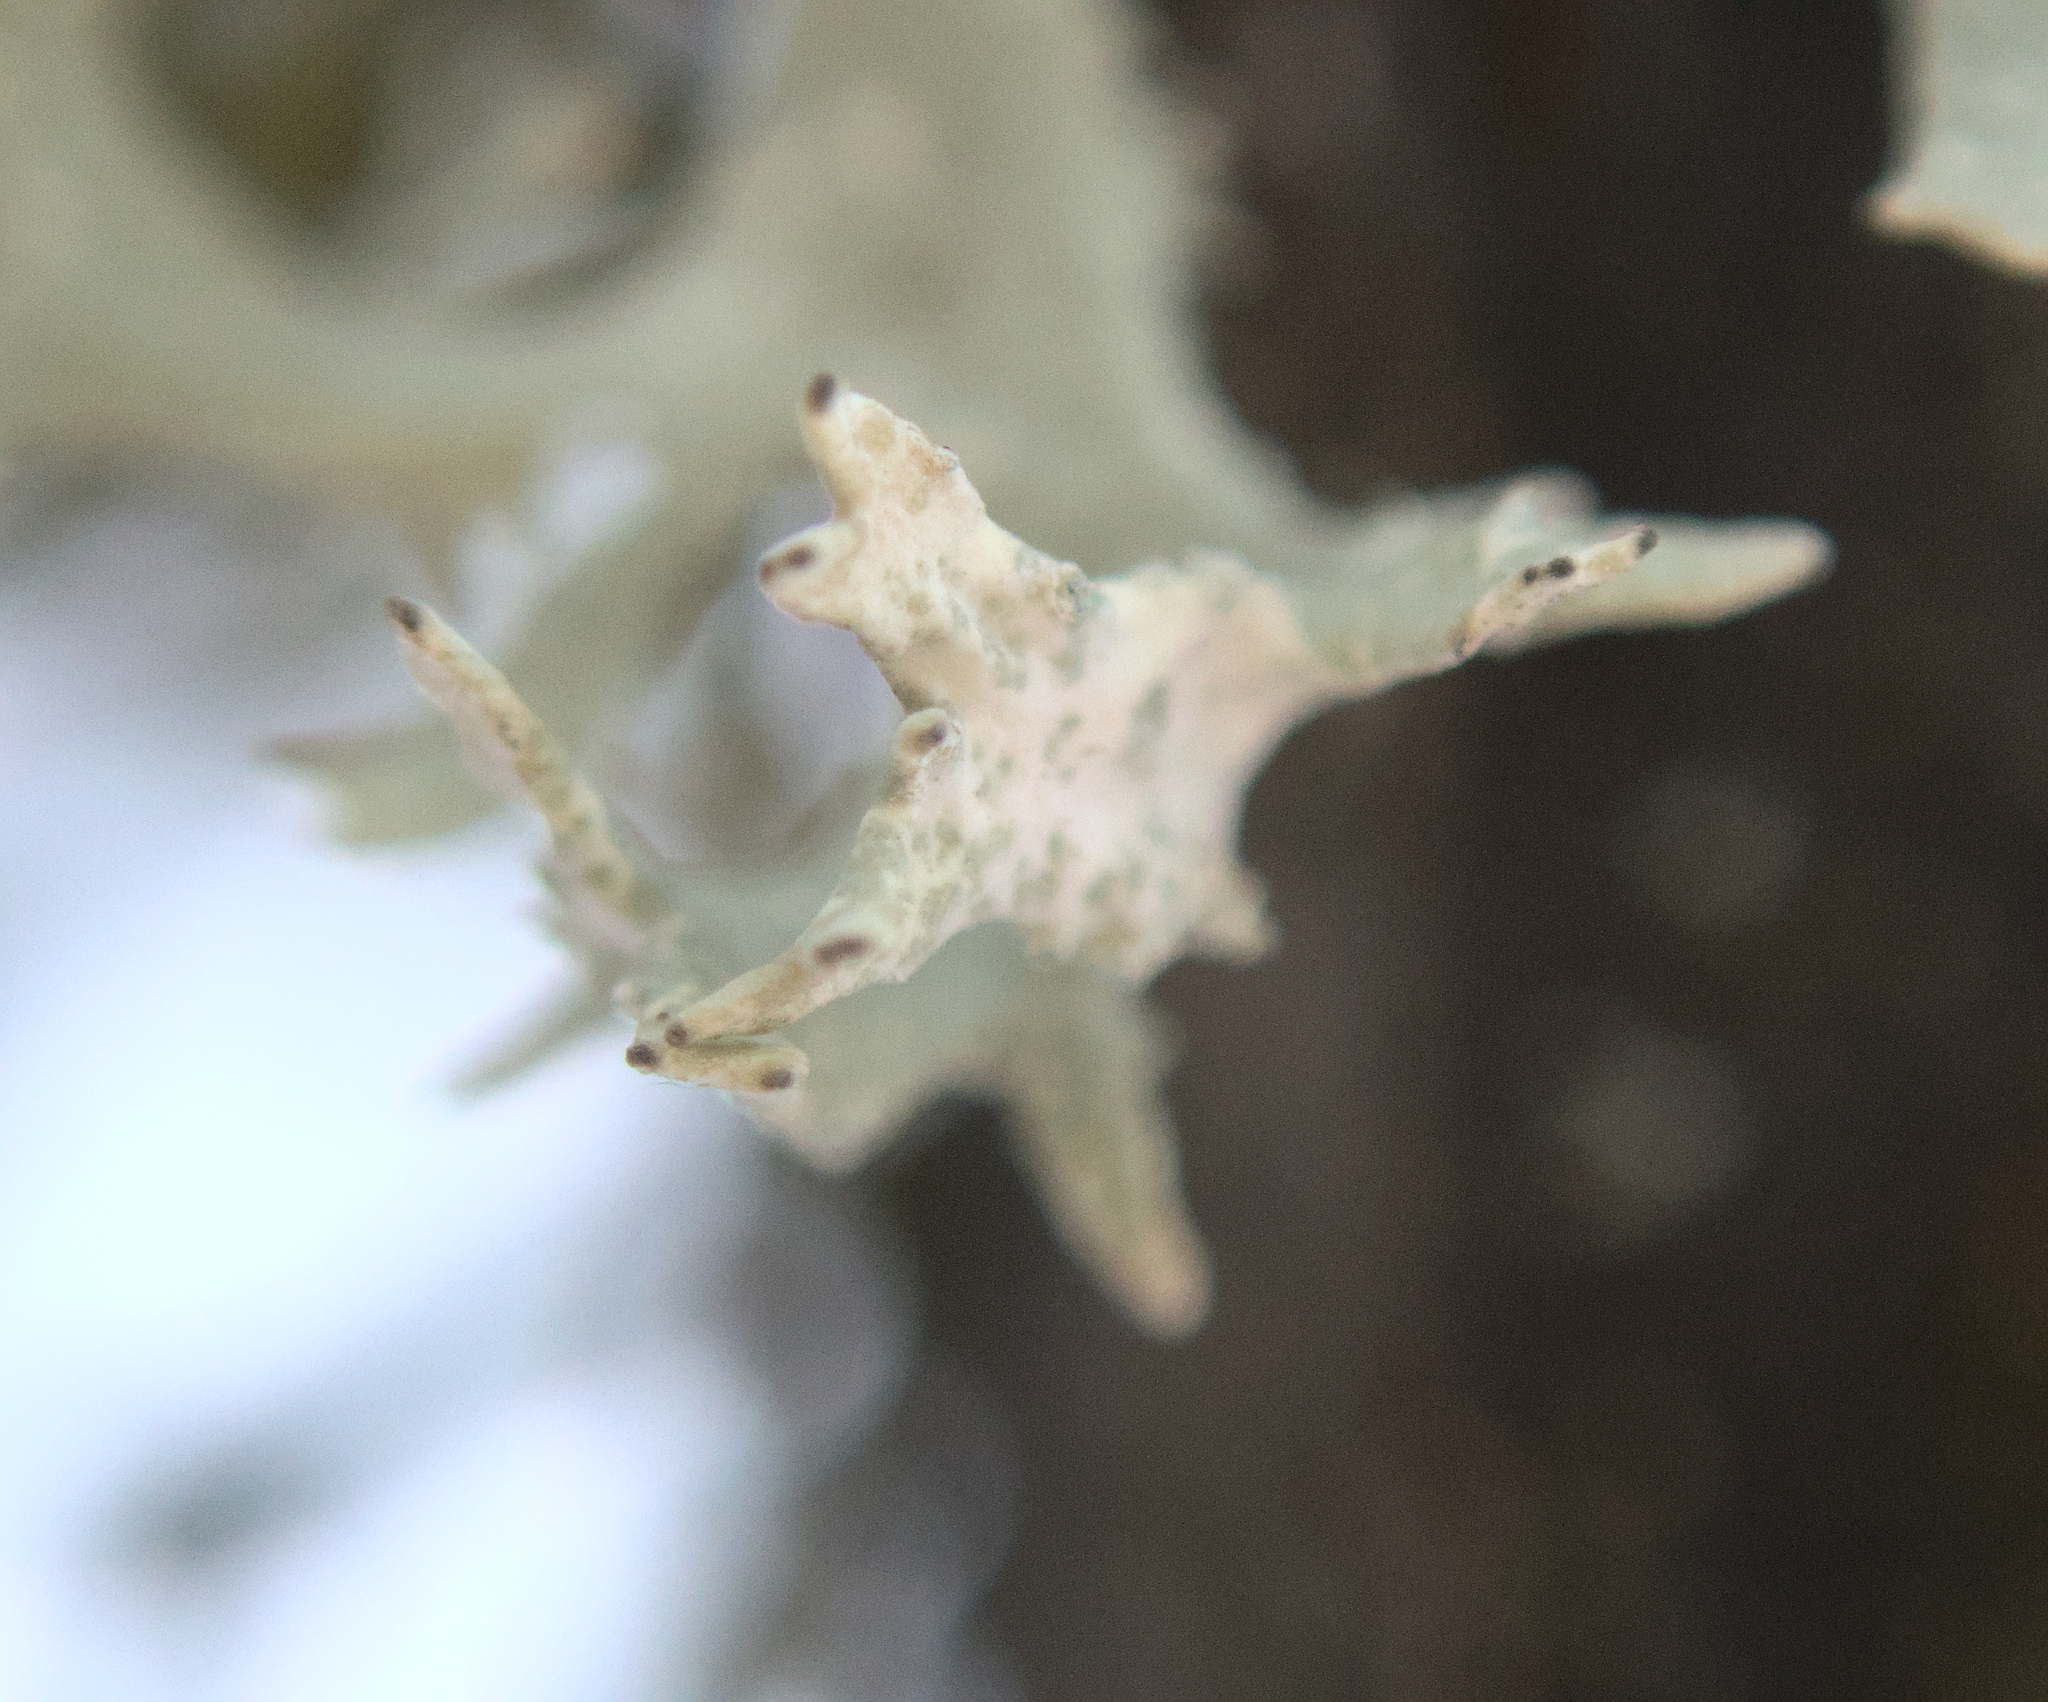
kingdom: Fungi
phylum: Ascomycota
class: Lecanoromycetes
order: Lecanorales
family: Parmeliaceae
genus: Evernia
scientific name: Evernia prunastri
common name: Oak moss
